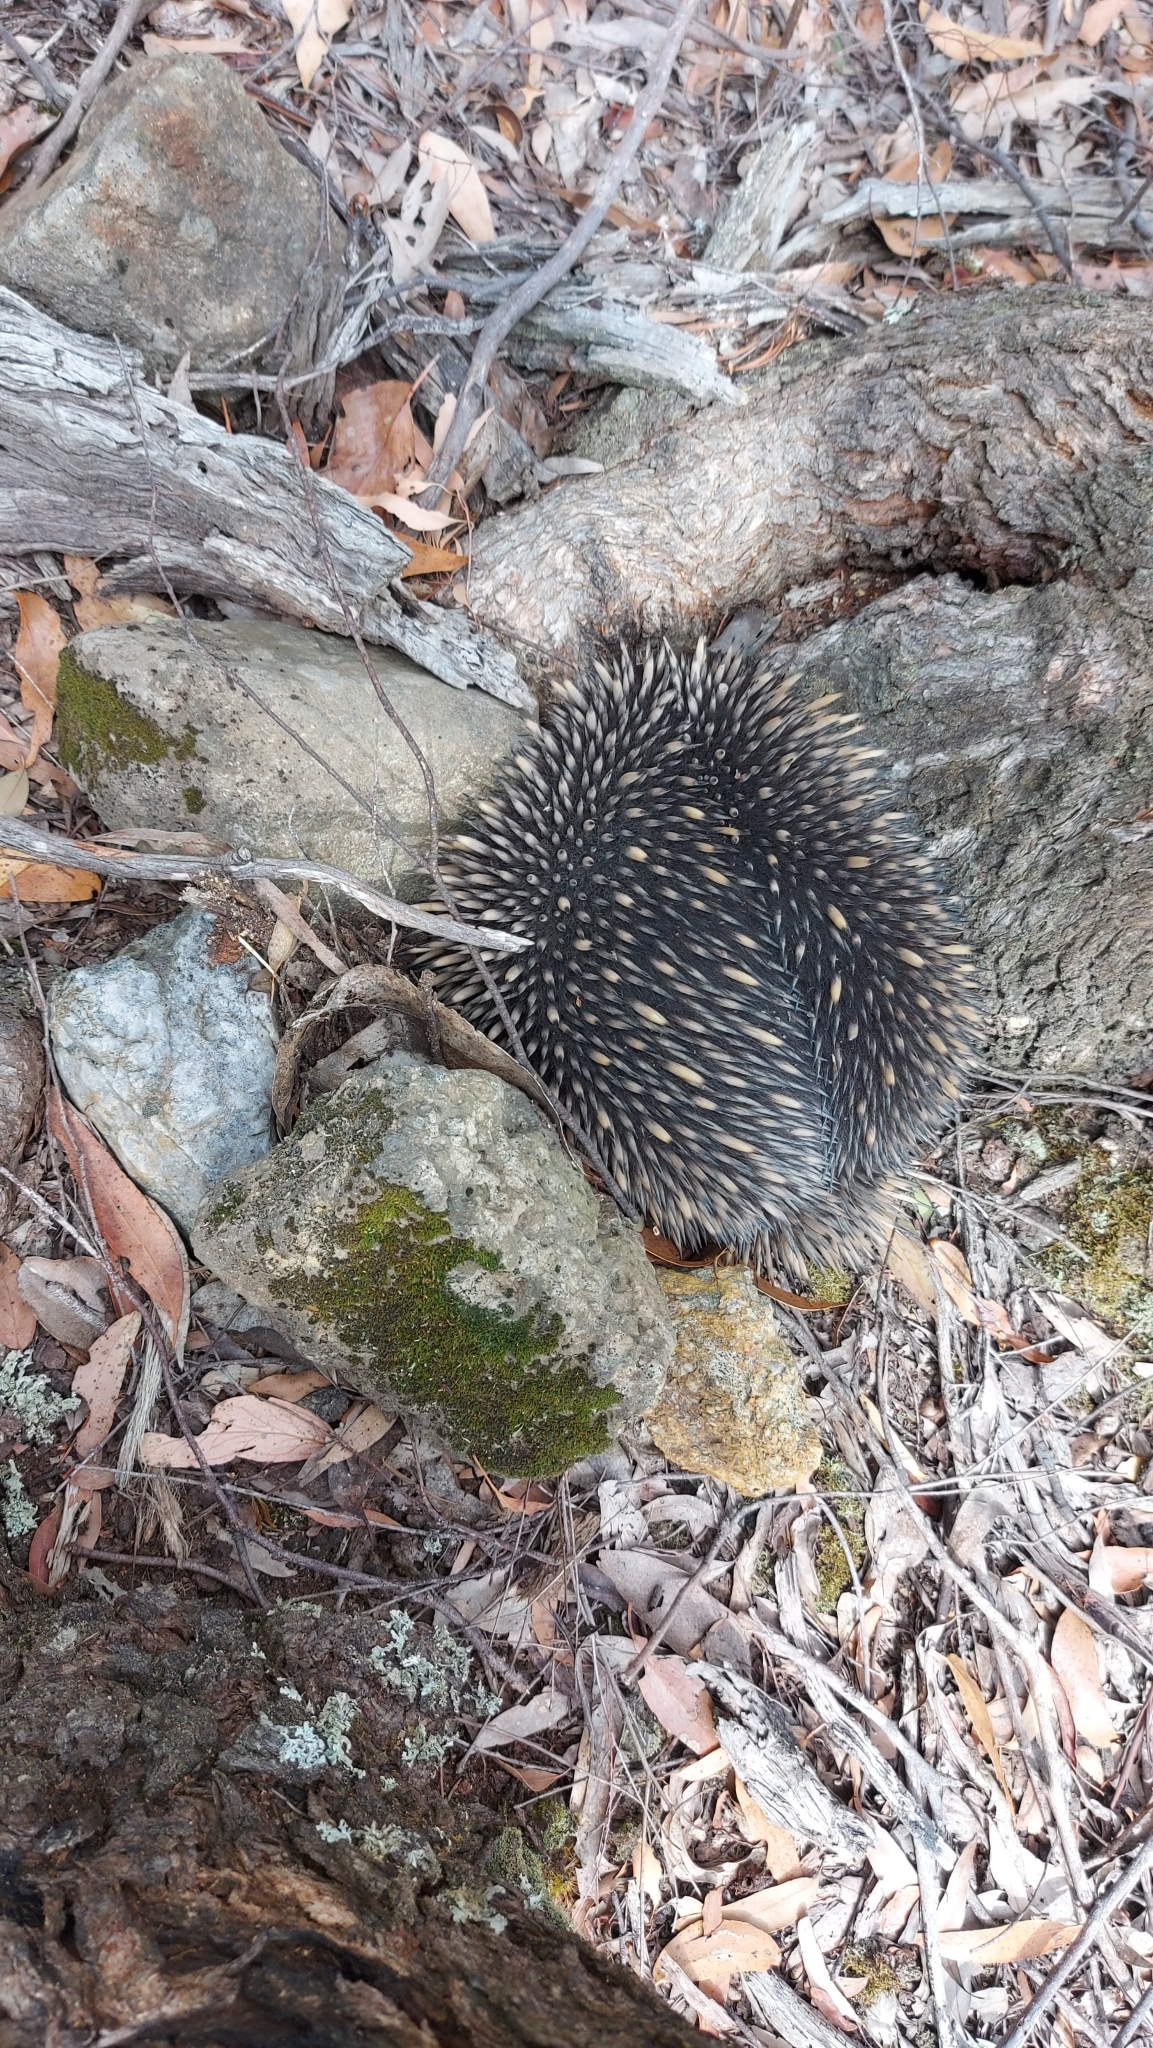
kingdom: Animalia
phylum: Chordata
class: Mammalia
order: Monotremata
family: Tachyglossidae
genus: Tachyglossus
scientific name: Tachyglossus aculeatus
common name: Short-beaked echidna
